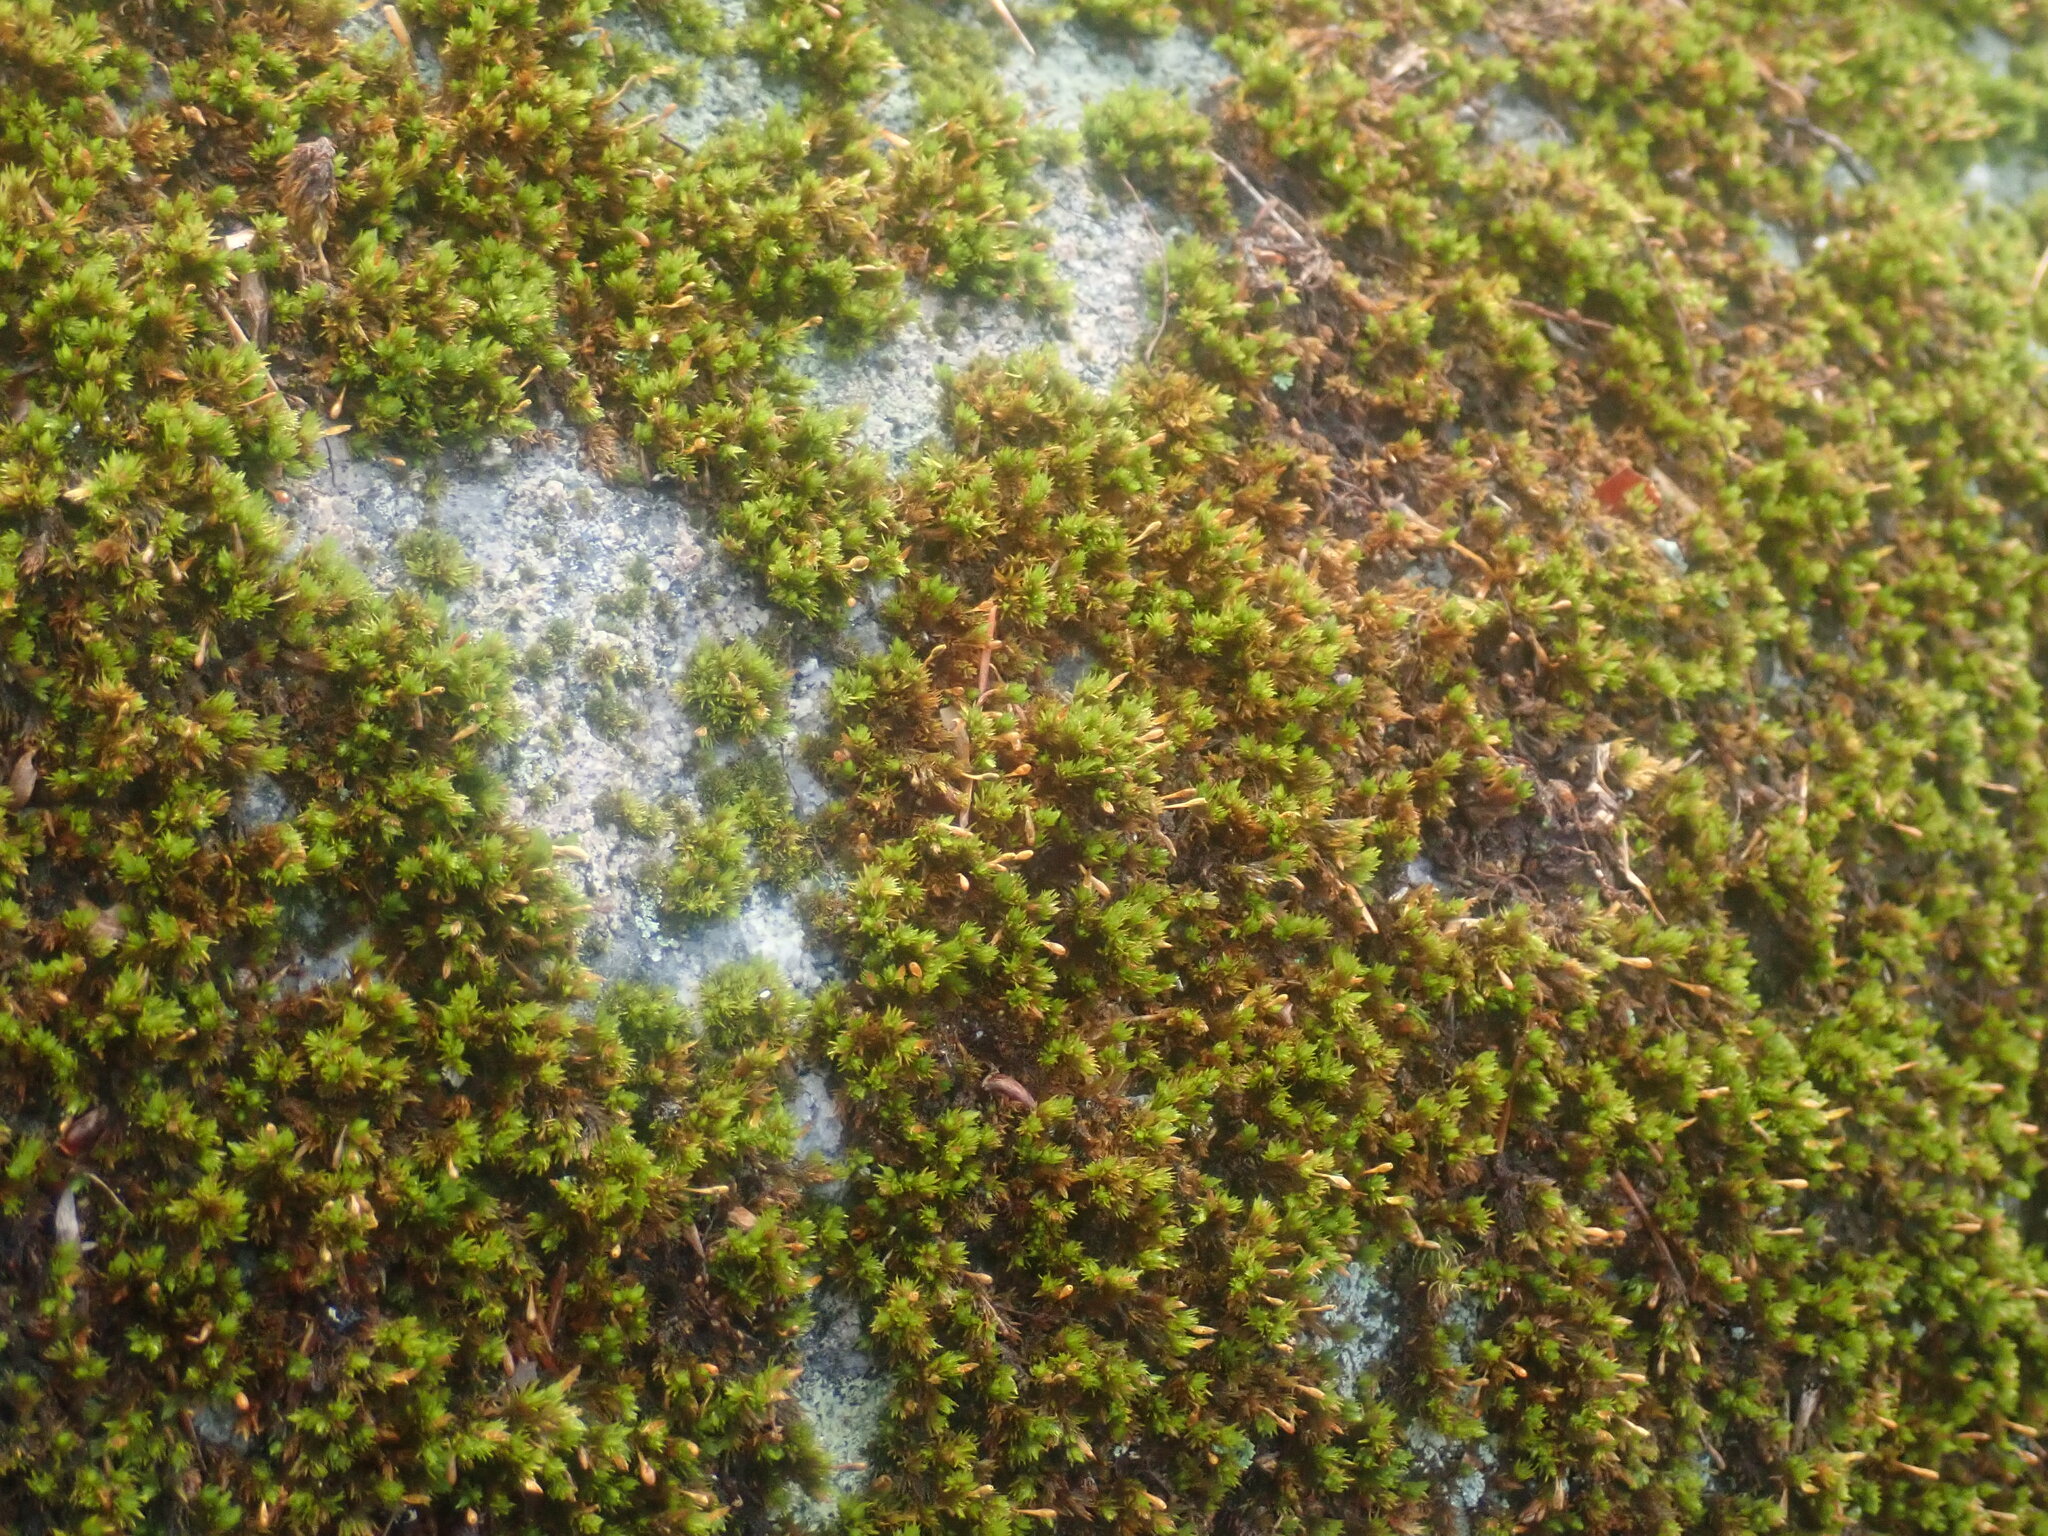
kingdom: Plantae
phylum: Bryophyta
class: Bryopsida
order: Orthotrichales
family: Orthotrichaceae
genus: Ulota
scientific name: Ulota hutchinsiae
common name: Hutchins' pincushion
